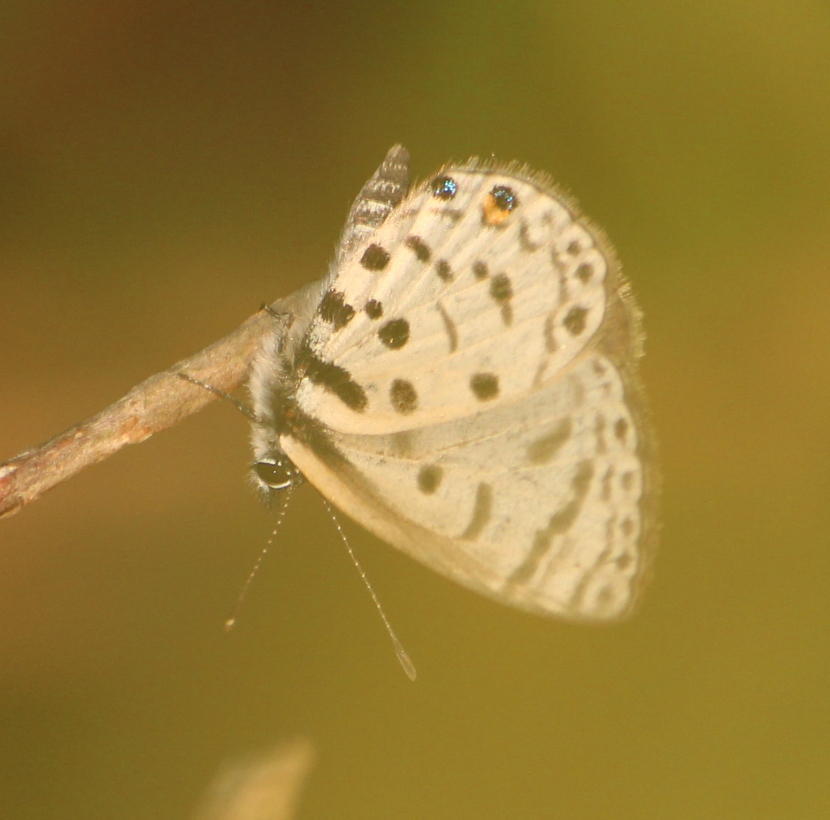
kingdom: Animalia
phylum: Arthropoda
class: Insecta
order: Lepidoptera
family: Lycaenidae
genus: Azanus
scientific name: Azanus mirza
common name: Mirza babul blue
